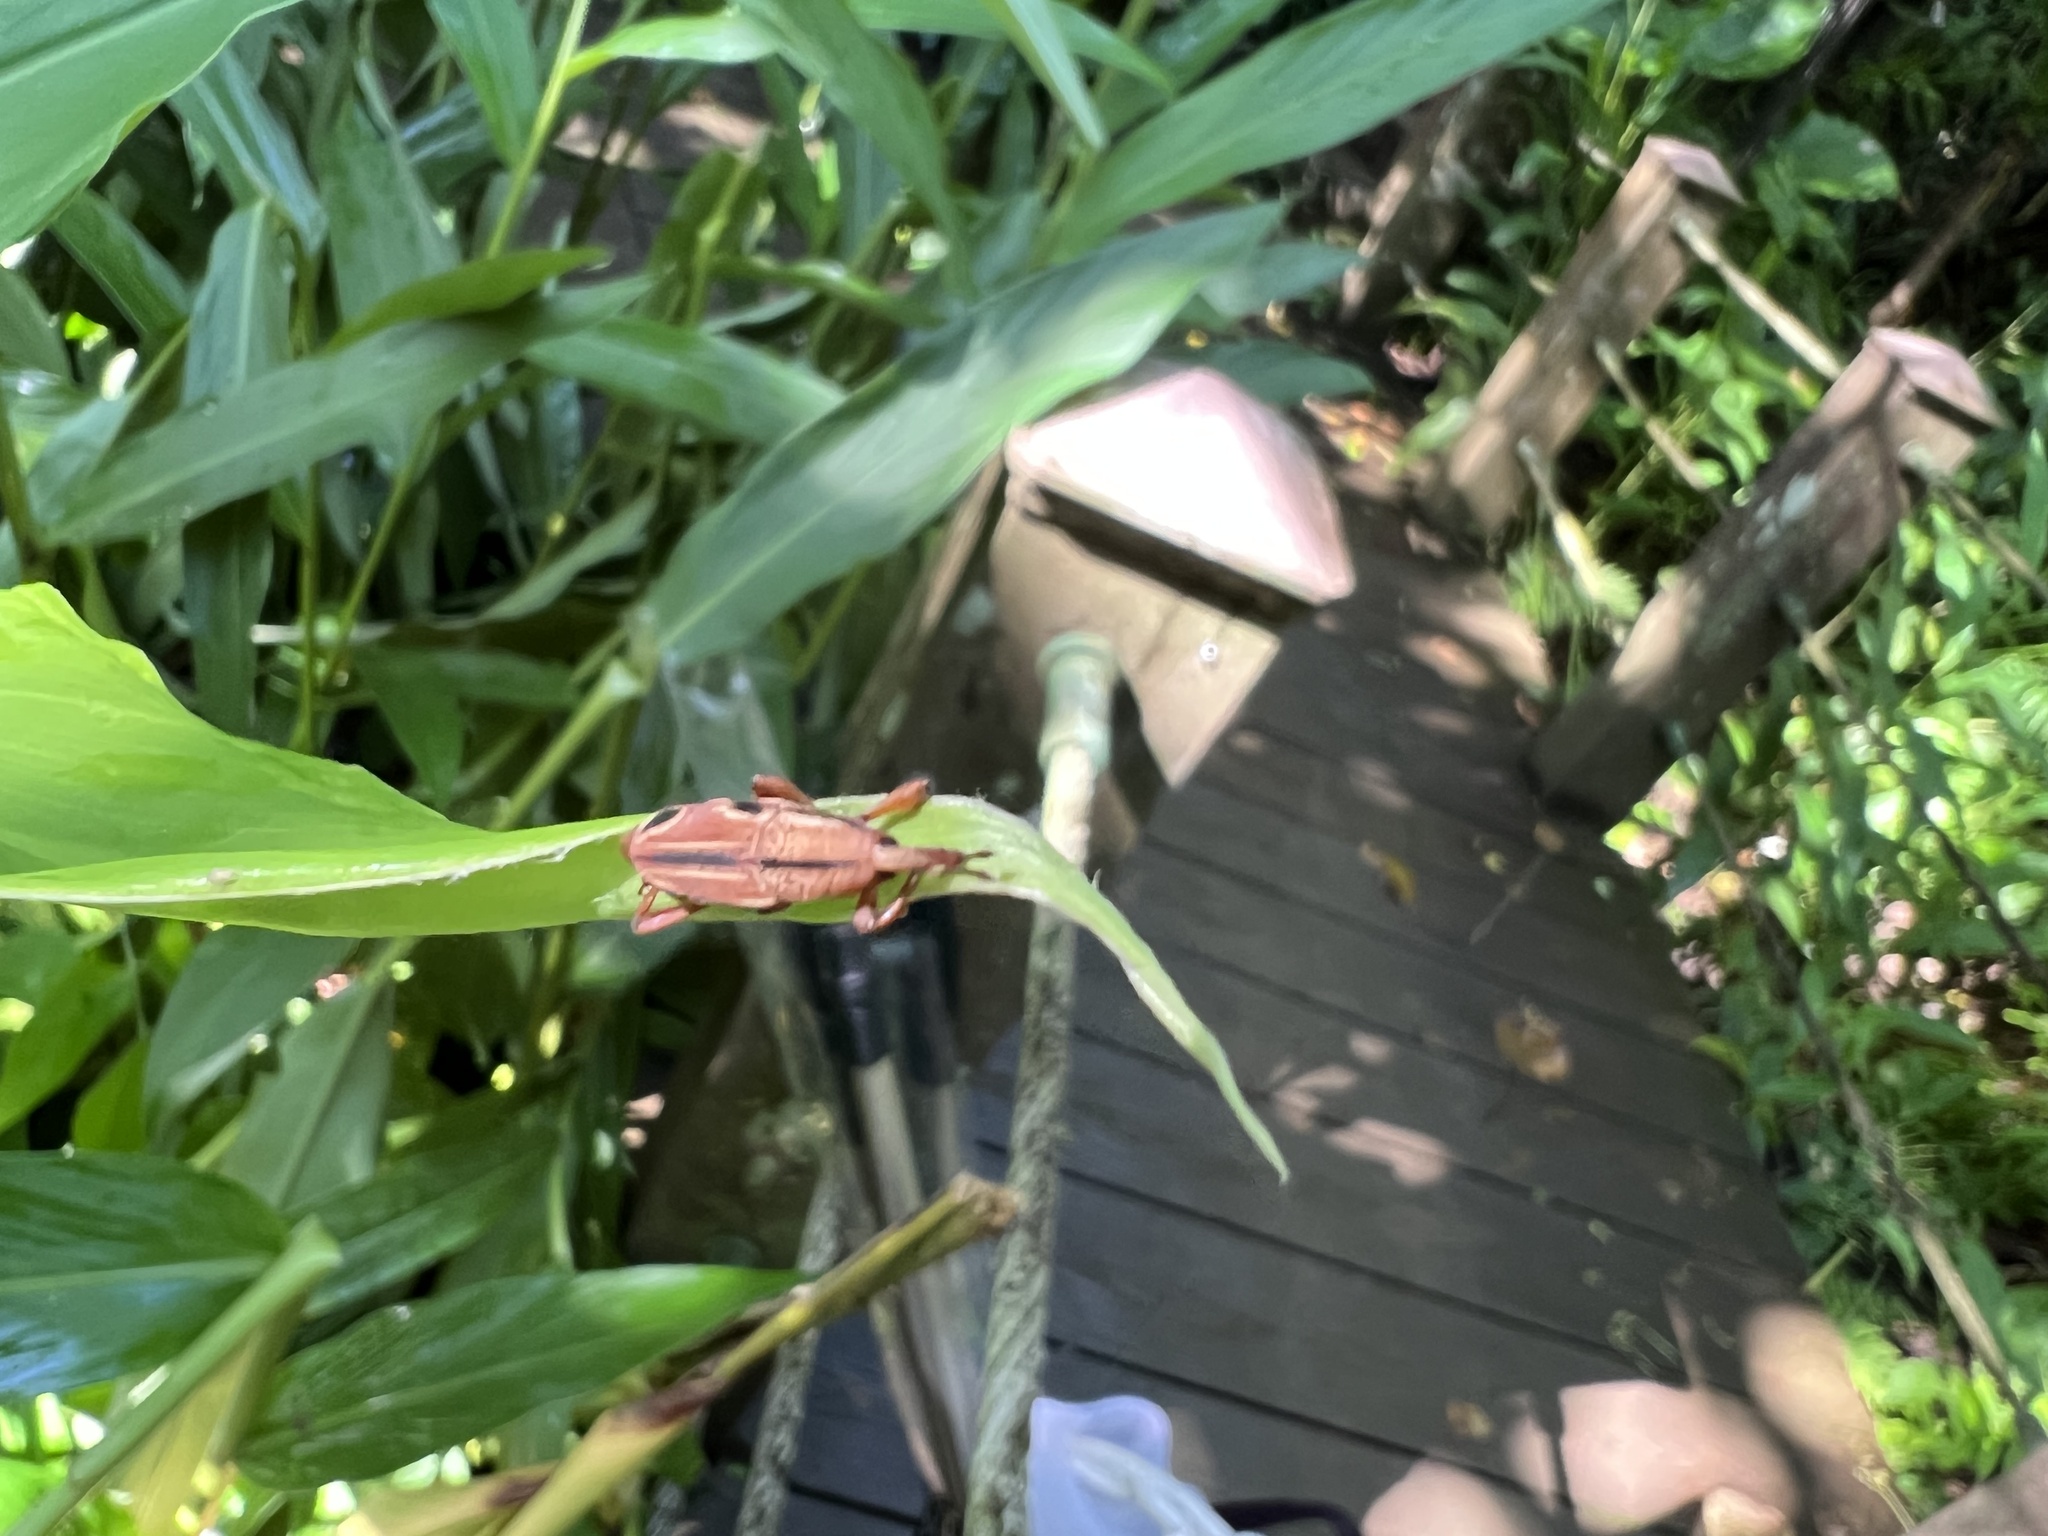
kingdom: Animalia
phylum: Arthropoda
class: Insecta
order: Coleoptera
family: Dryophthoridae
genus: Sphenocorynes
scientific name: Sphenocorynes kosempoensis
